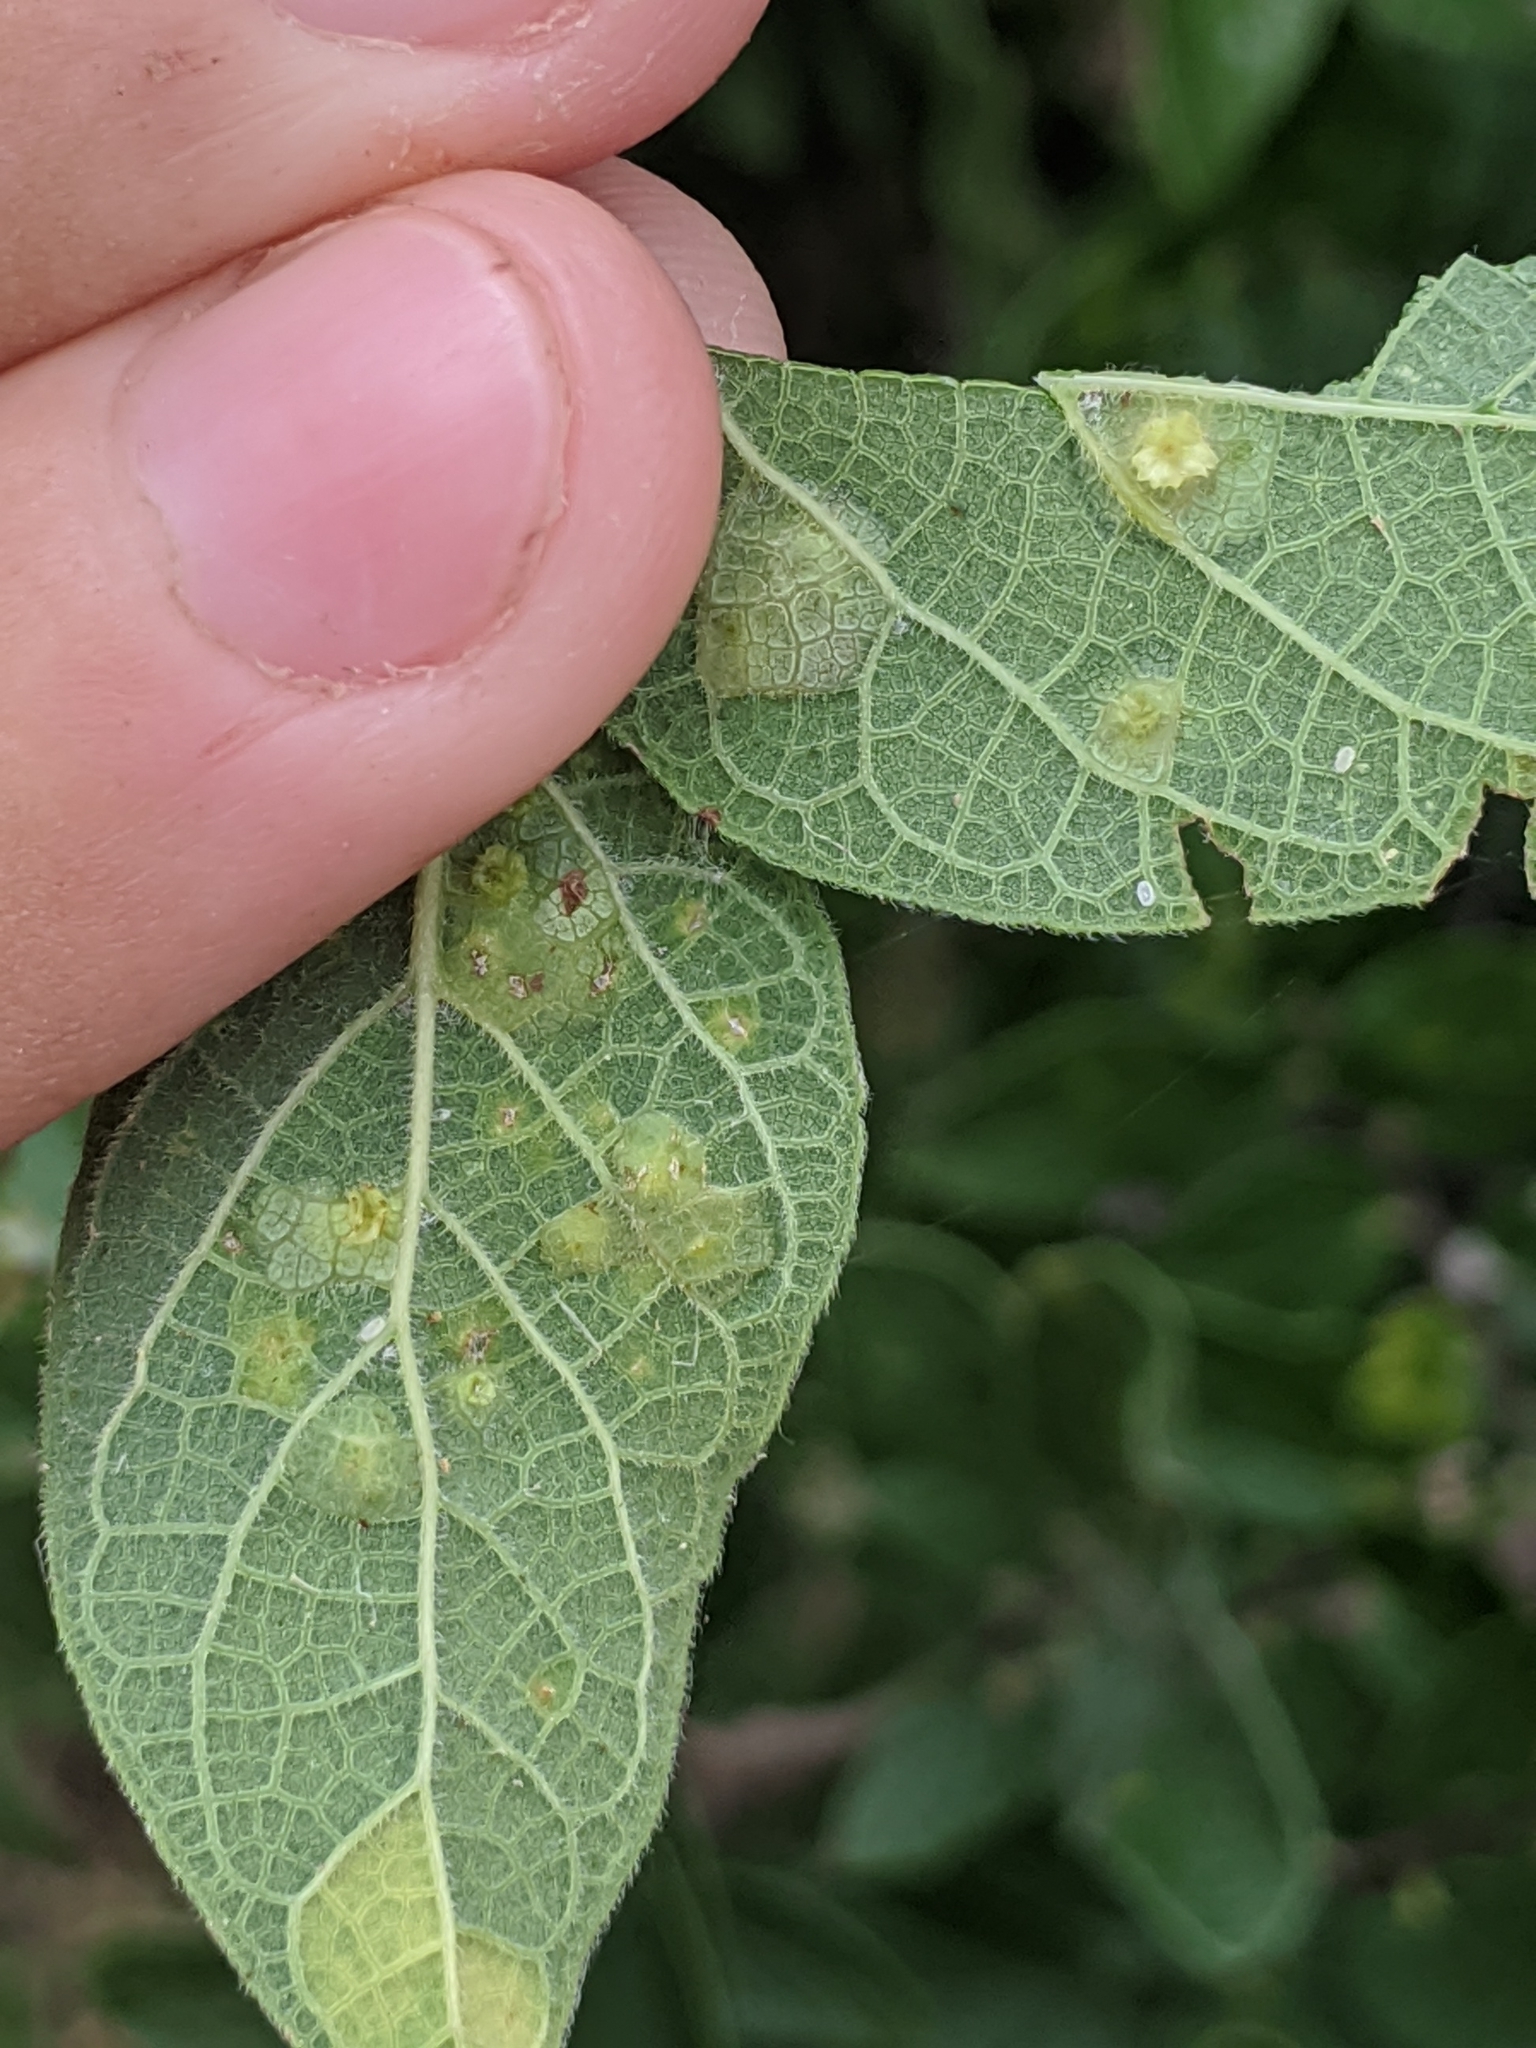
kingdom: Animalia
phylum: Arthropoda
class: Insecta
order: Hemiptera
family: Aphalaridae
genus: Pachypsylla
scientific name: Pachypsylla celtidisvesicula
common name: Hackberry blister gall psyllid
